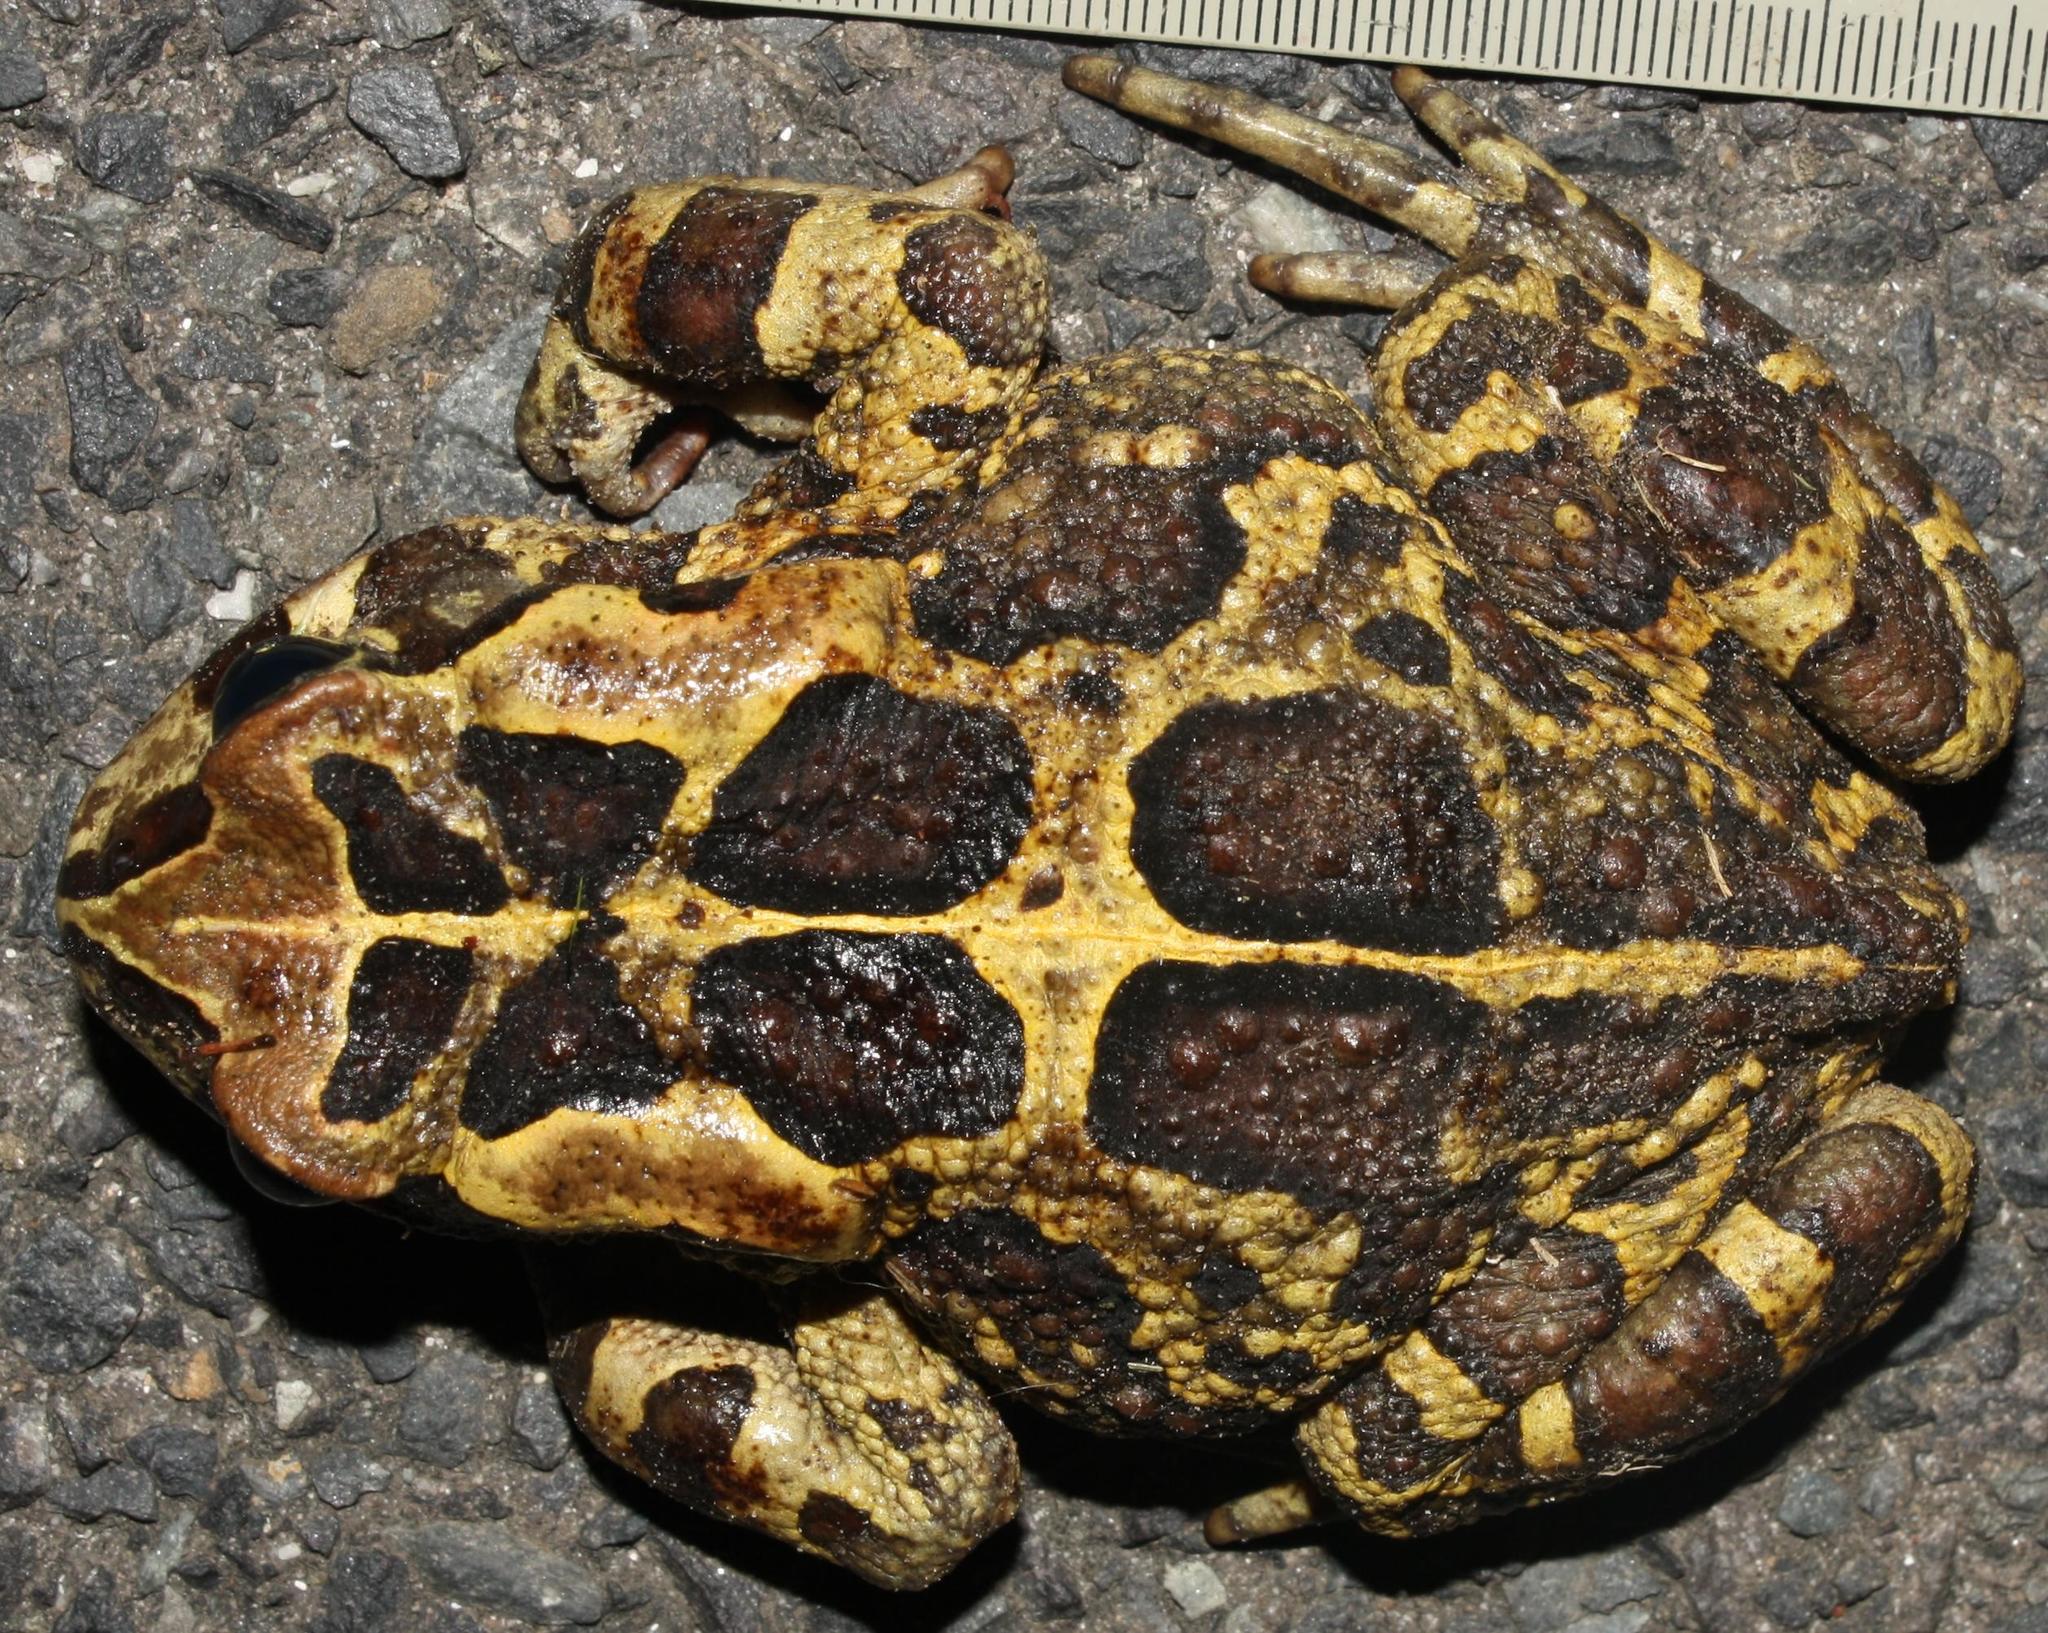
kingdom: Animalia
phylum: Chordata
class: Amphibia
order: Anura
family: Bufonidae
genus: Sclerophrys
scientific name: Sclerophrys pantherina
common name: Panther toad
